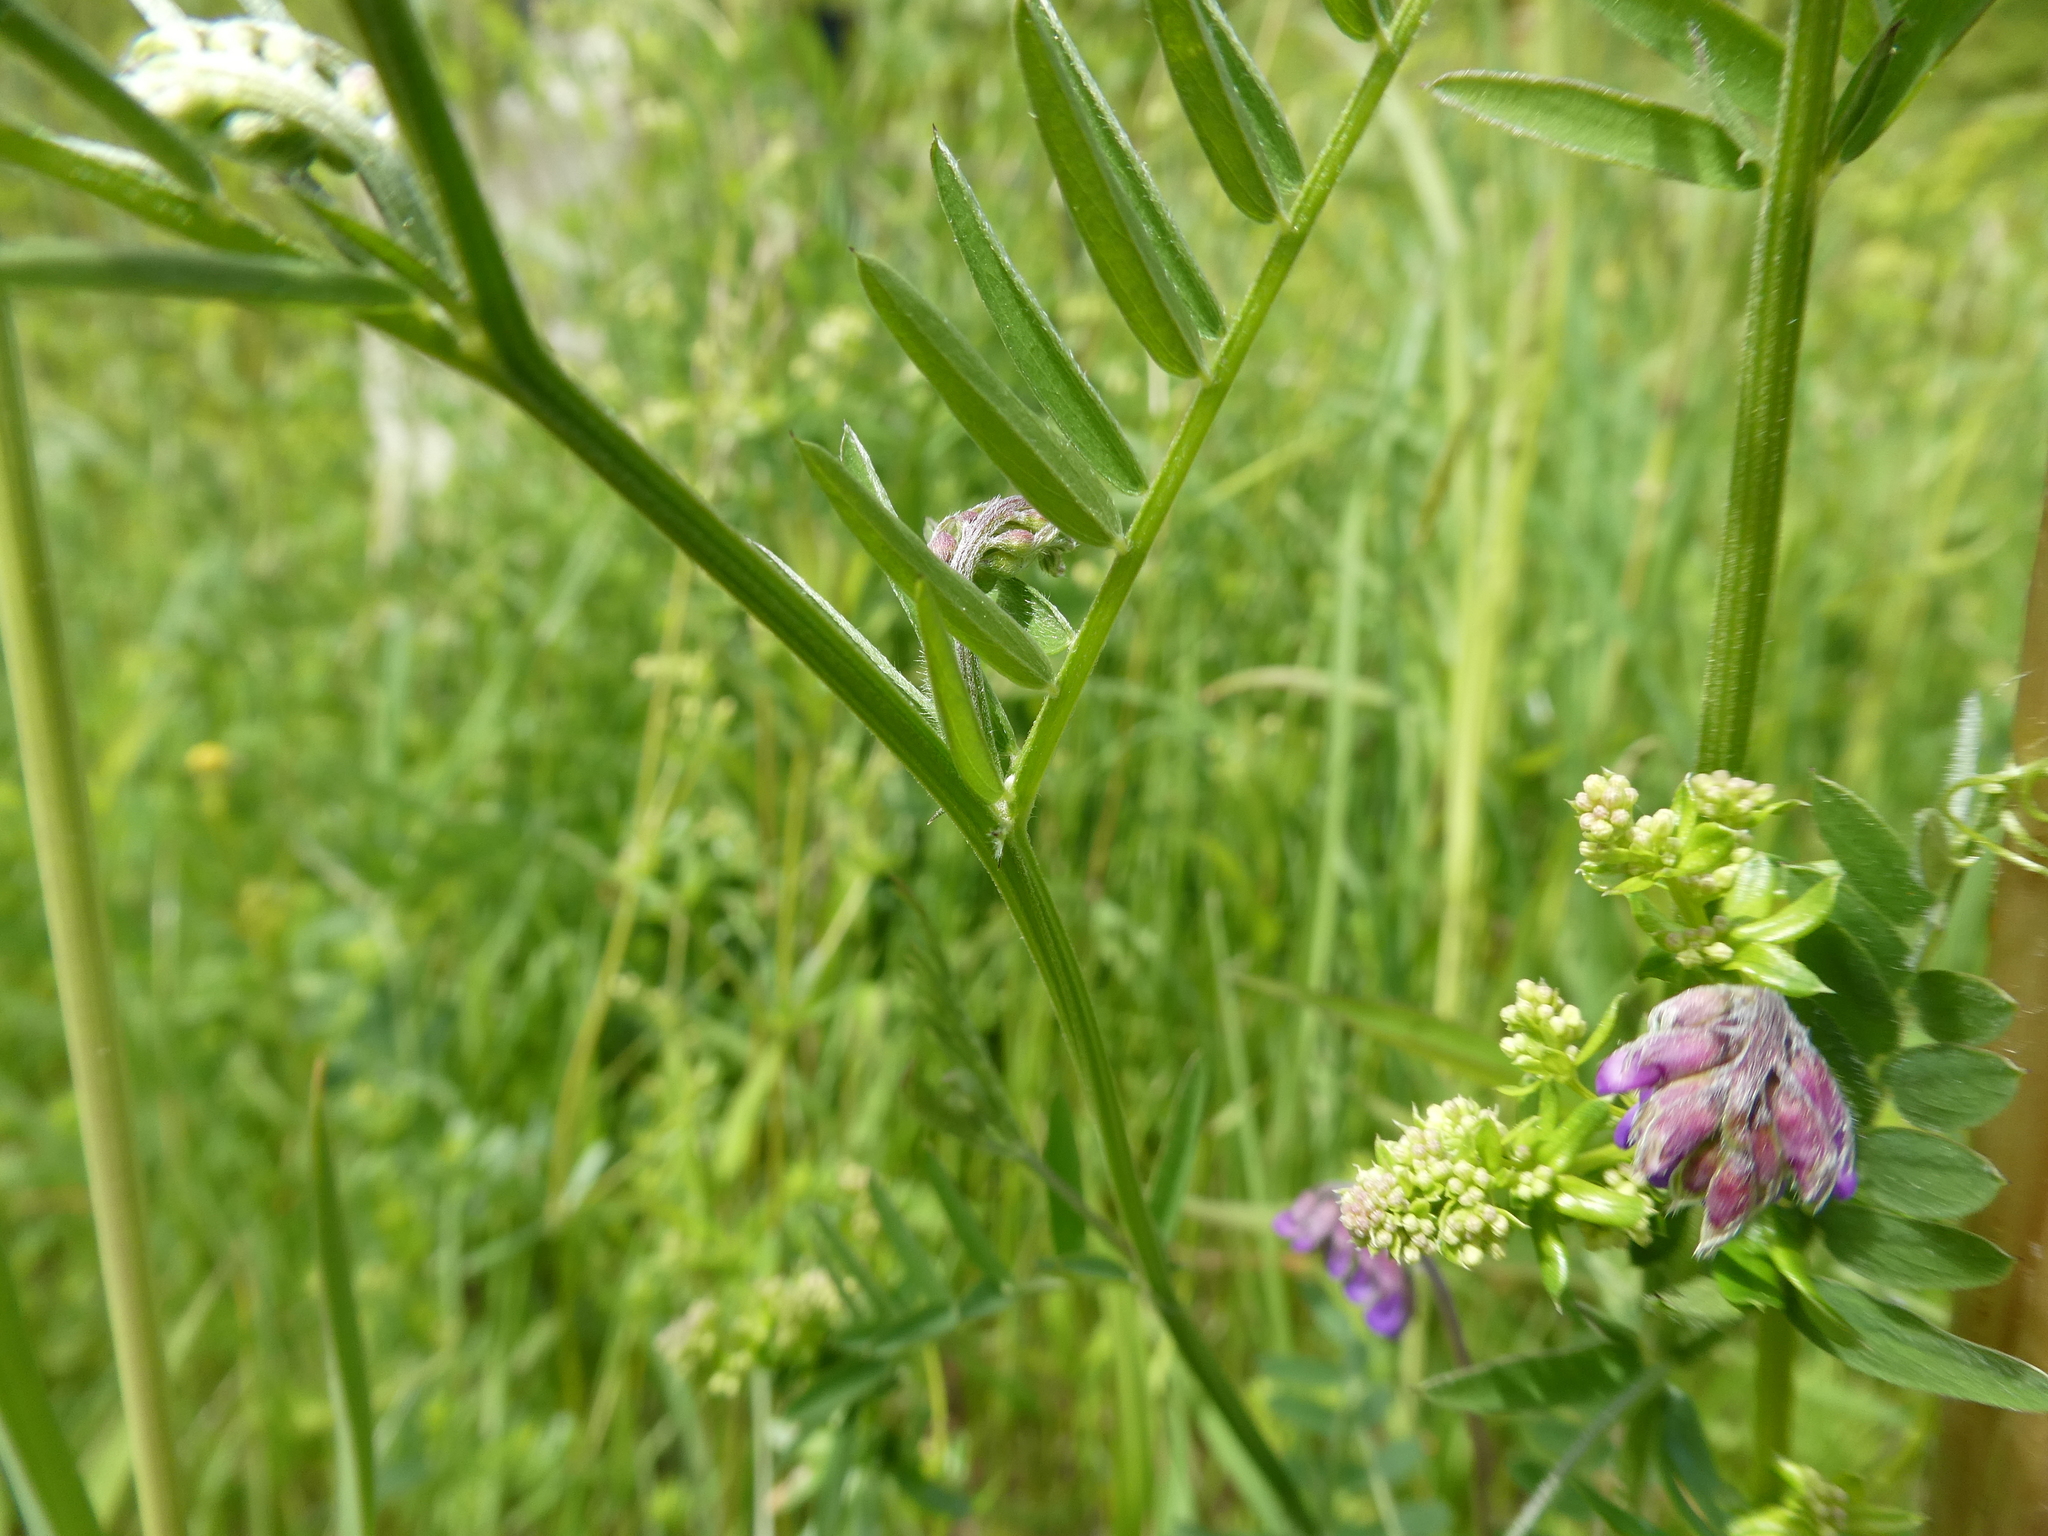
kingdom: Plantae
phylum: Tracheophyta
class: Magnoliopsida
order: Fabales
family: Fabaceae
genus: Vicia
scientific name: Vicia cracca
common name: Bird vetch
